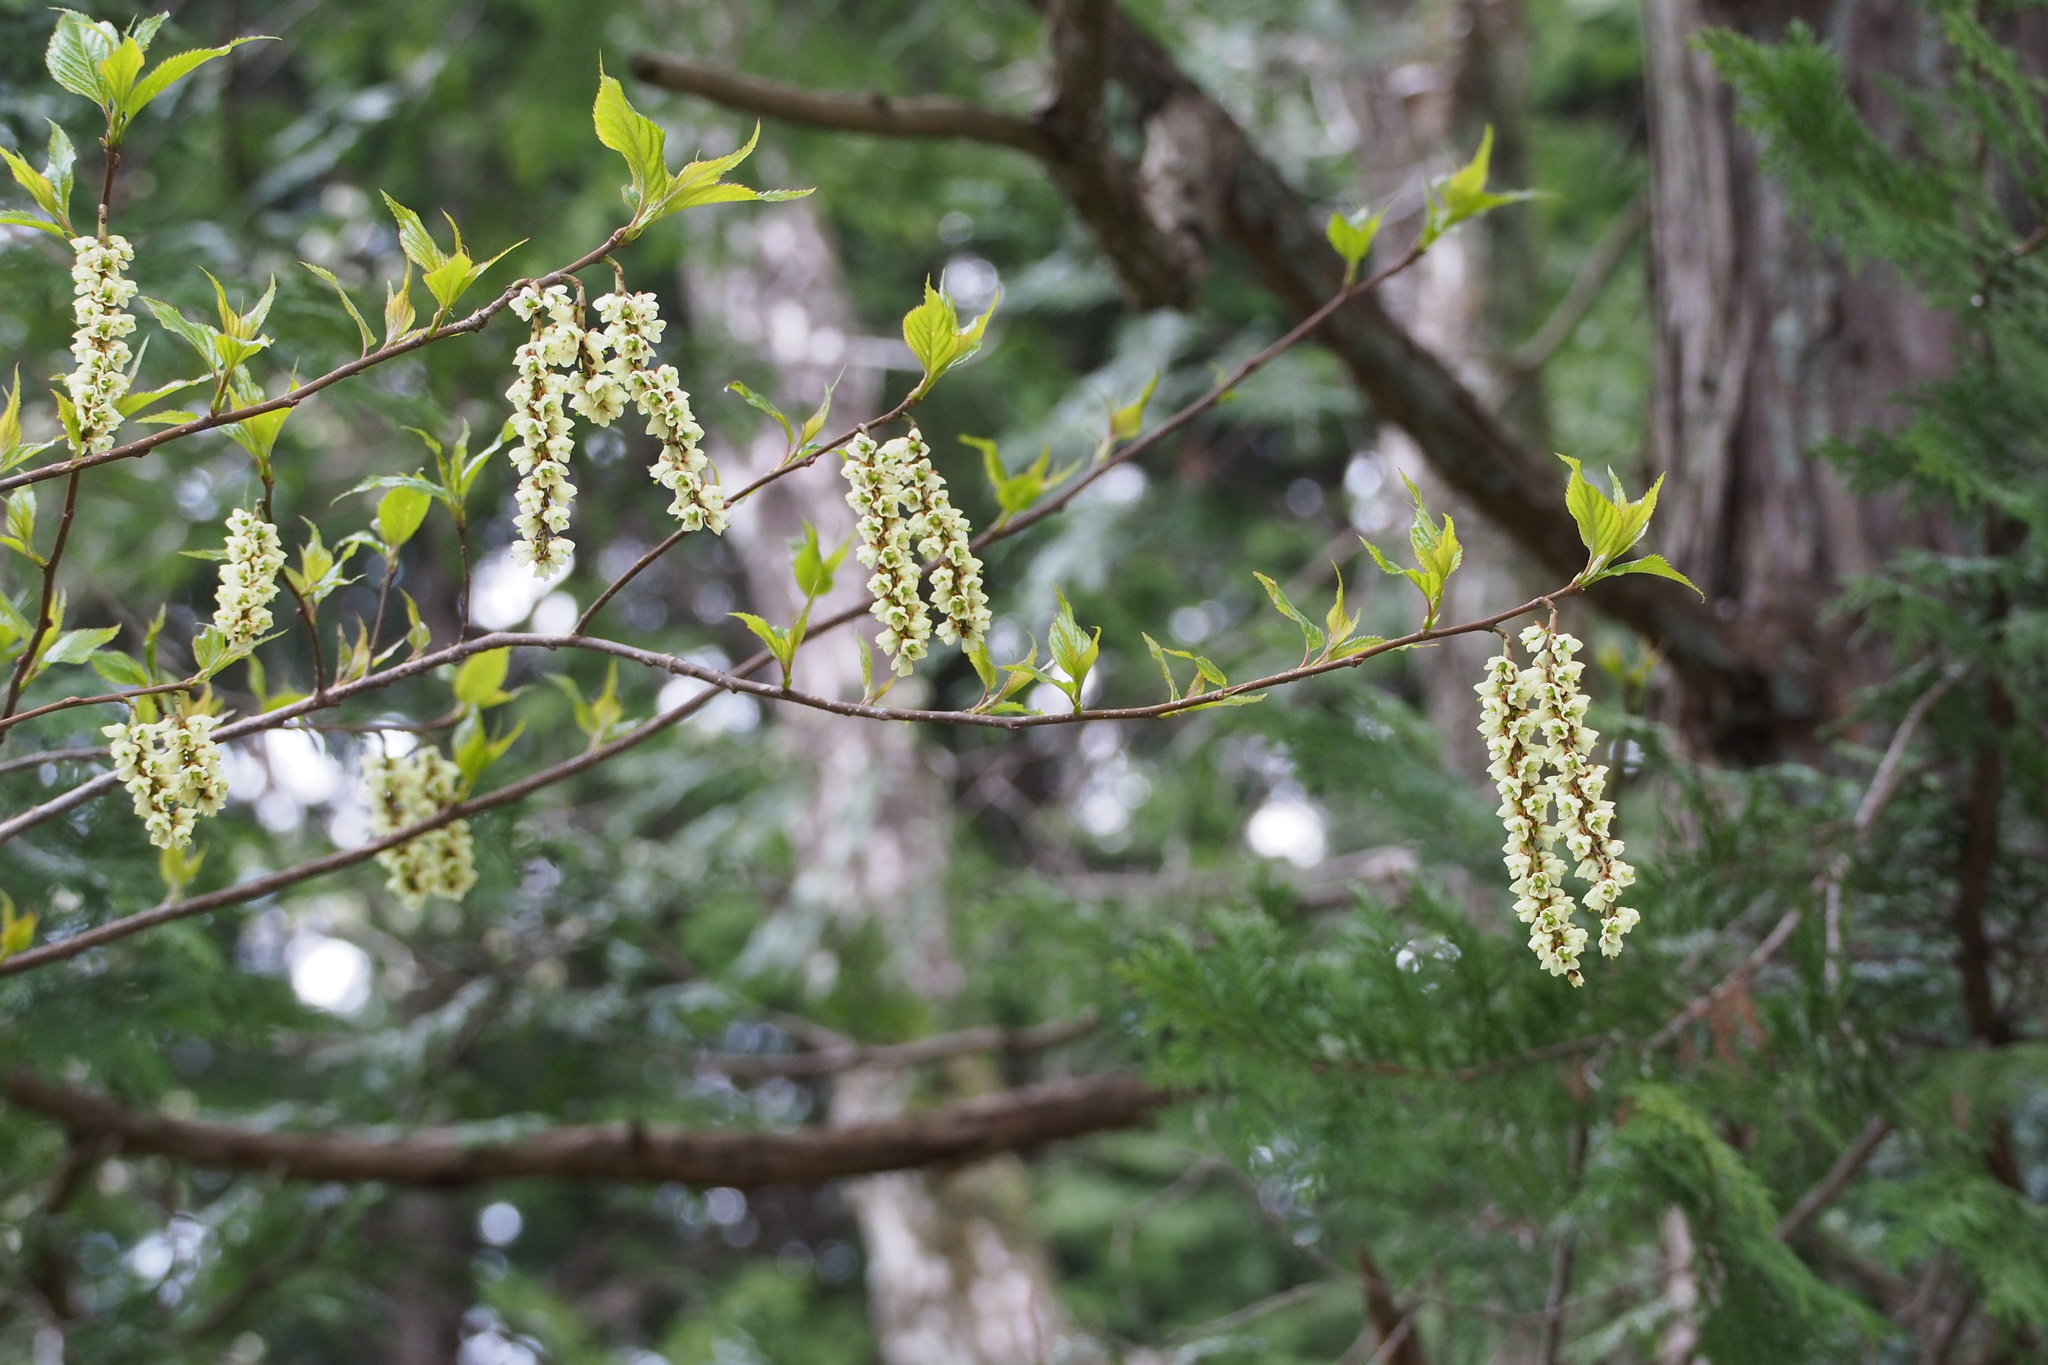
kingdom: Plantae
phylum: Tracheophyta
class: Magnoliopsida
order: Crossosomatales
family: Stachyuraceae
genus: Stachyurus
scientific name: Stachyurus praecox
